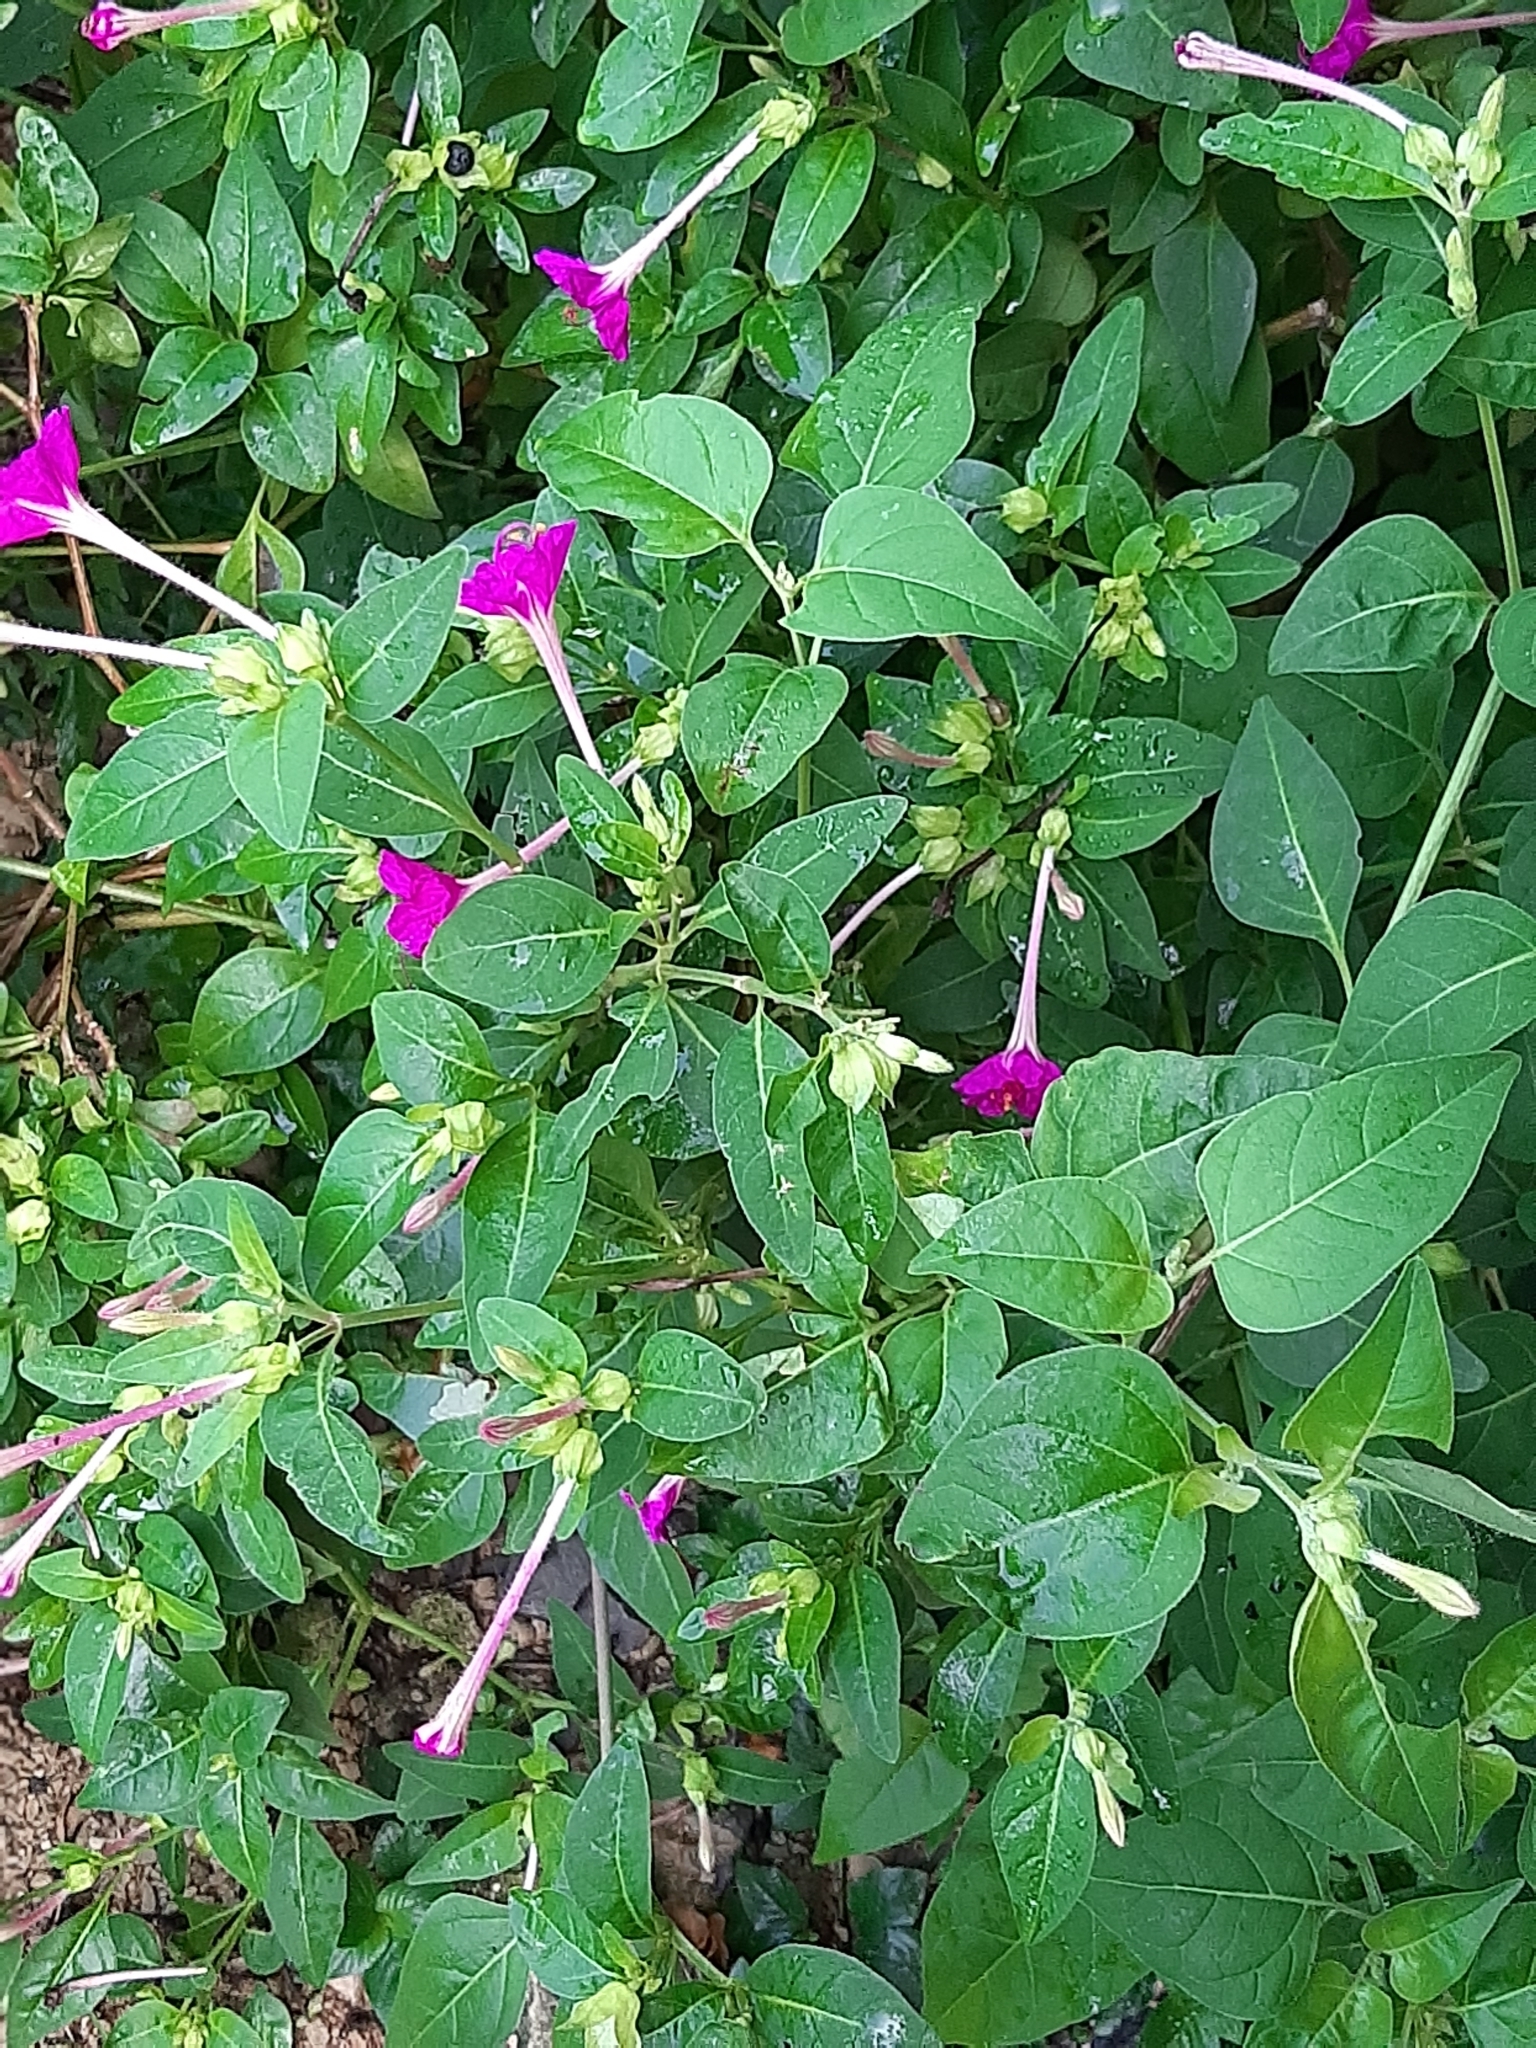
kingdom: Plantae
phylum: Tracheophyta
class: Magnoliopsida
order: Caryophyllales
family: Nyctaginaceae
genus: Mirabilis
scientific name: Mirabilis jalapa
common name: Marvel-of-peru
